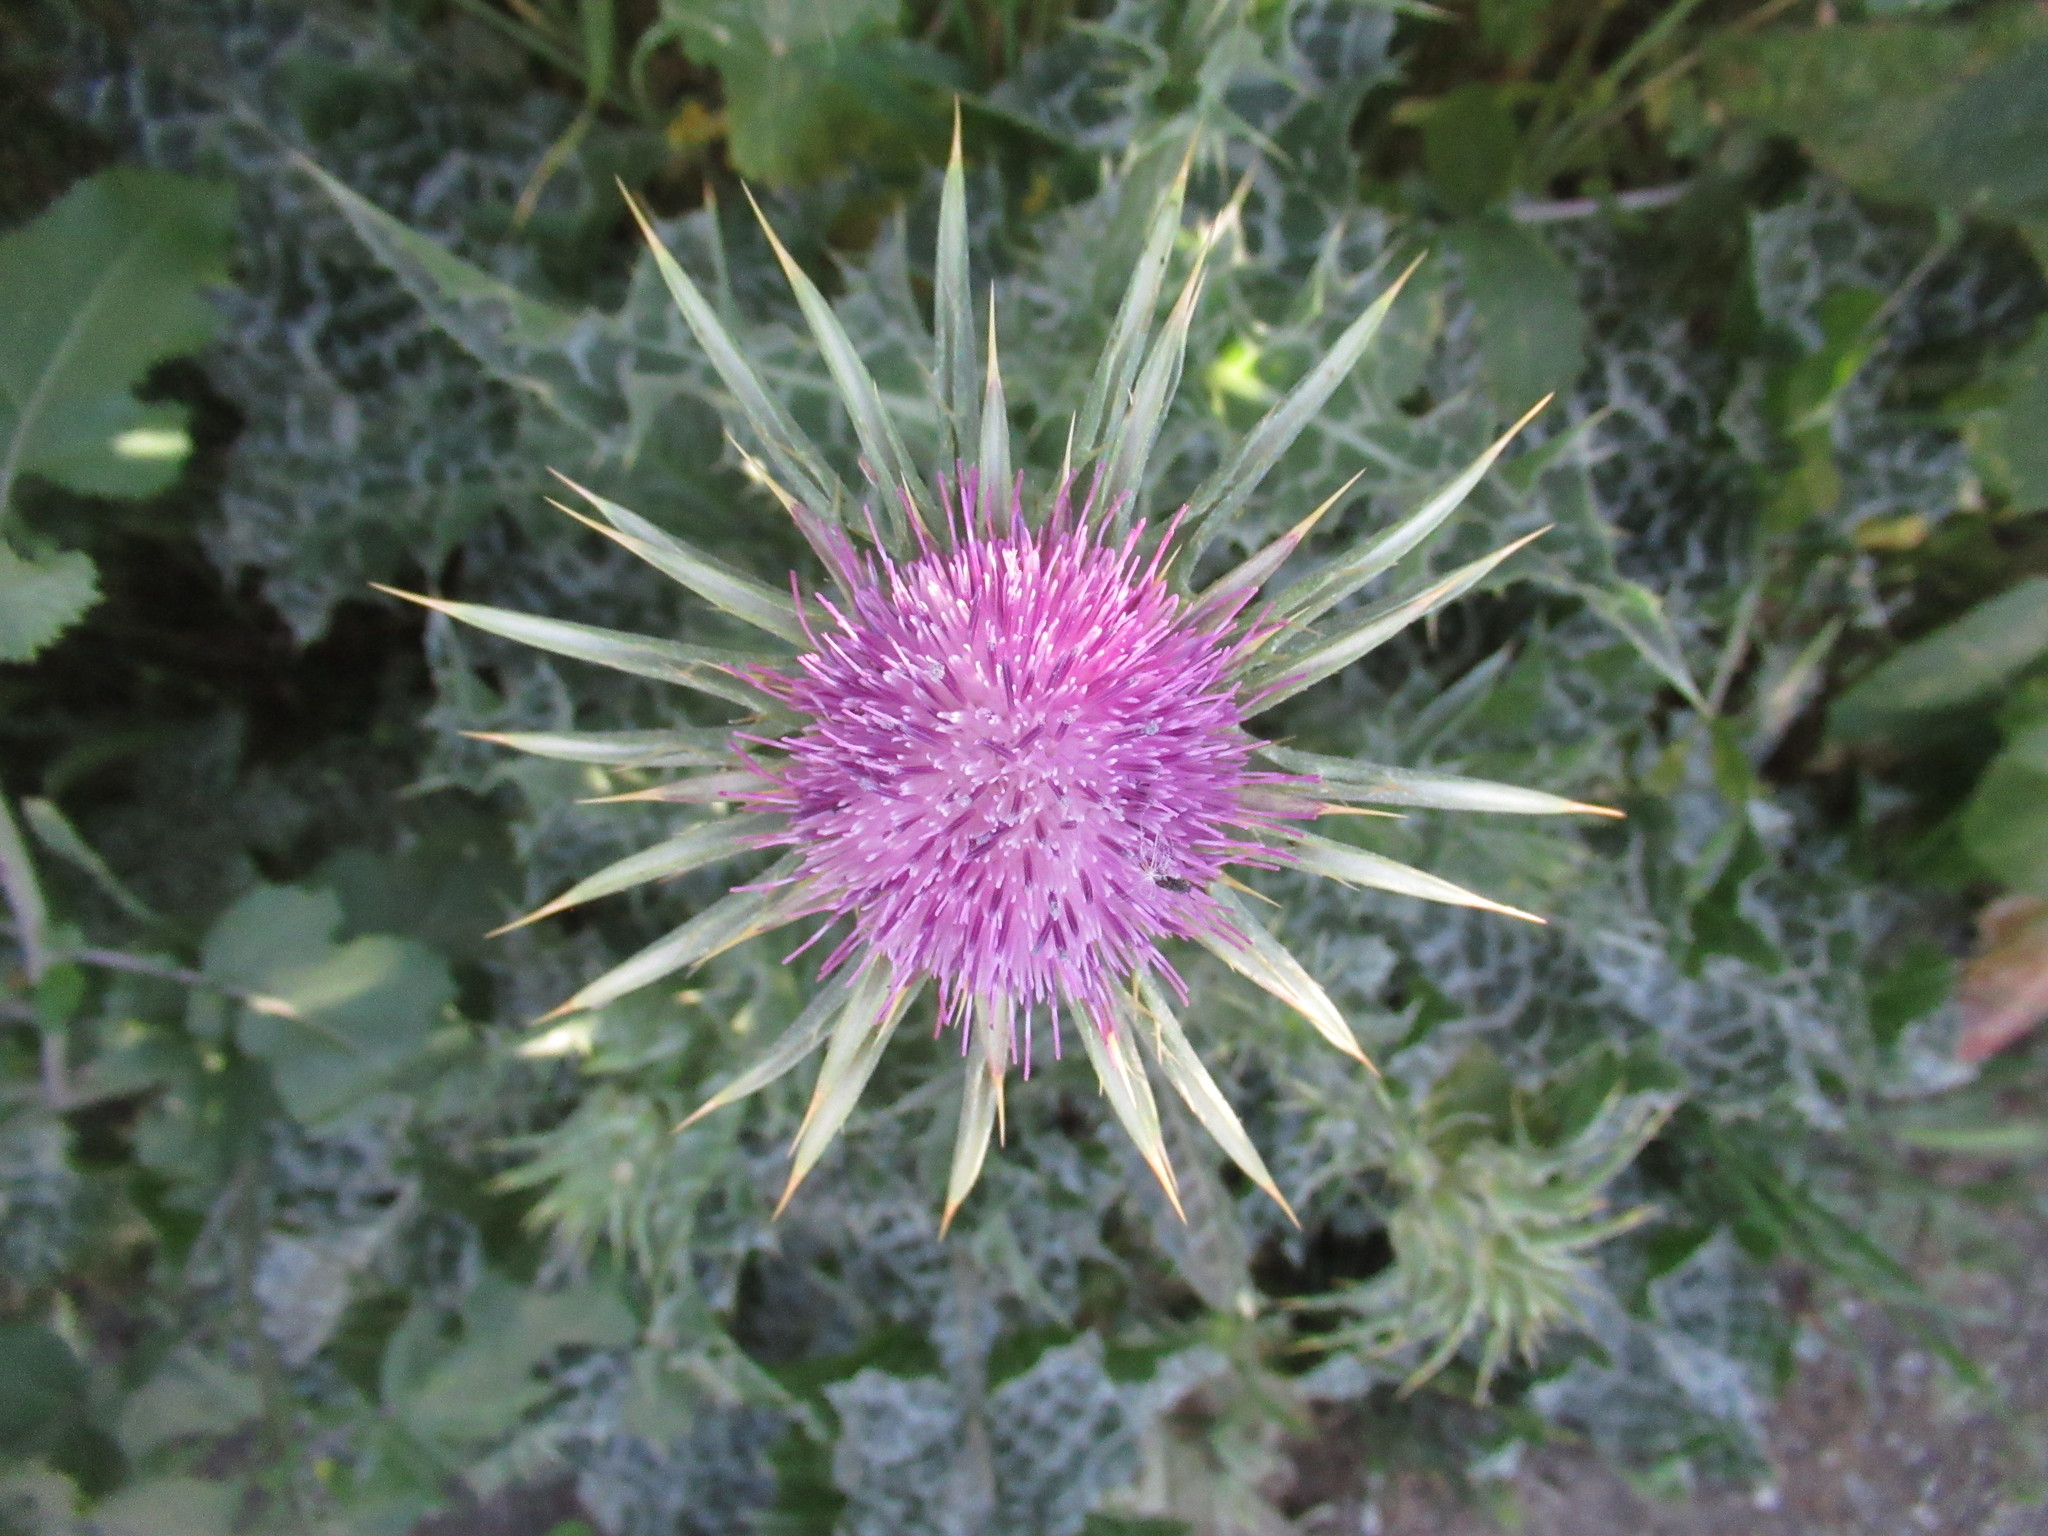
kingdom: Plantae
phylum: Tracheophyta
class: Magnoliopsida
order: Asterales
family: Asteraceae
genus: Silybum
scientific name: Silybum marianum
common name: Milk thistle
